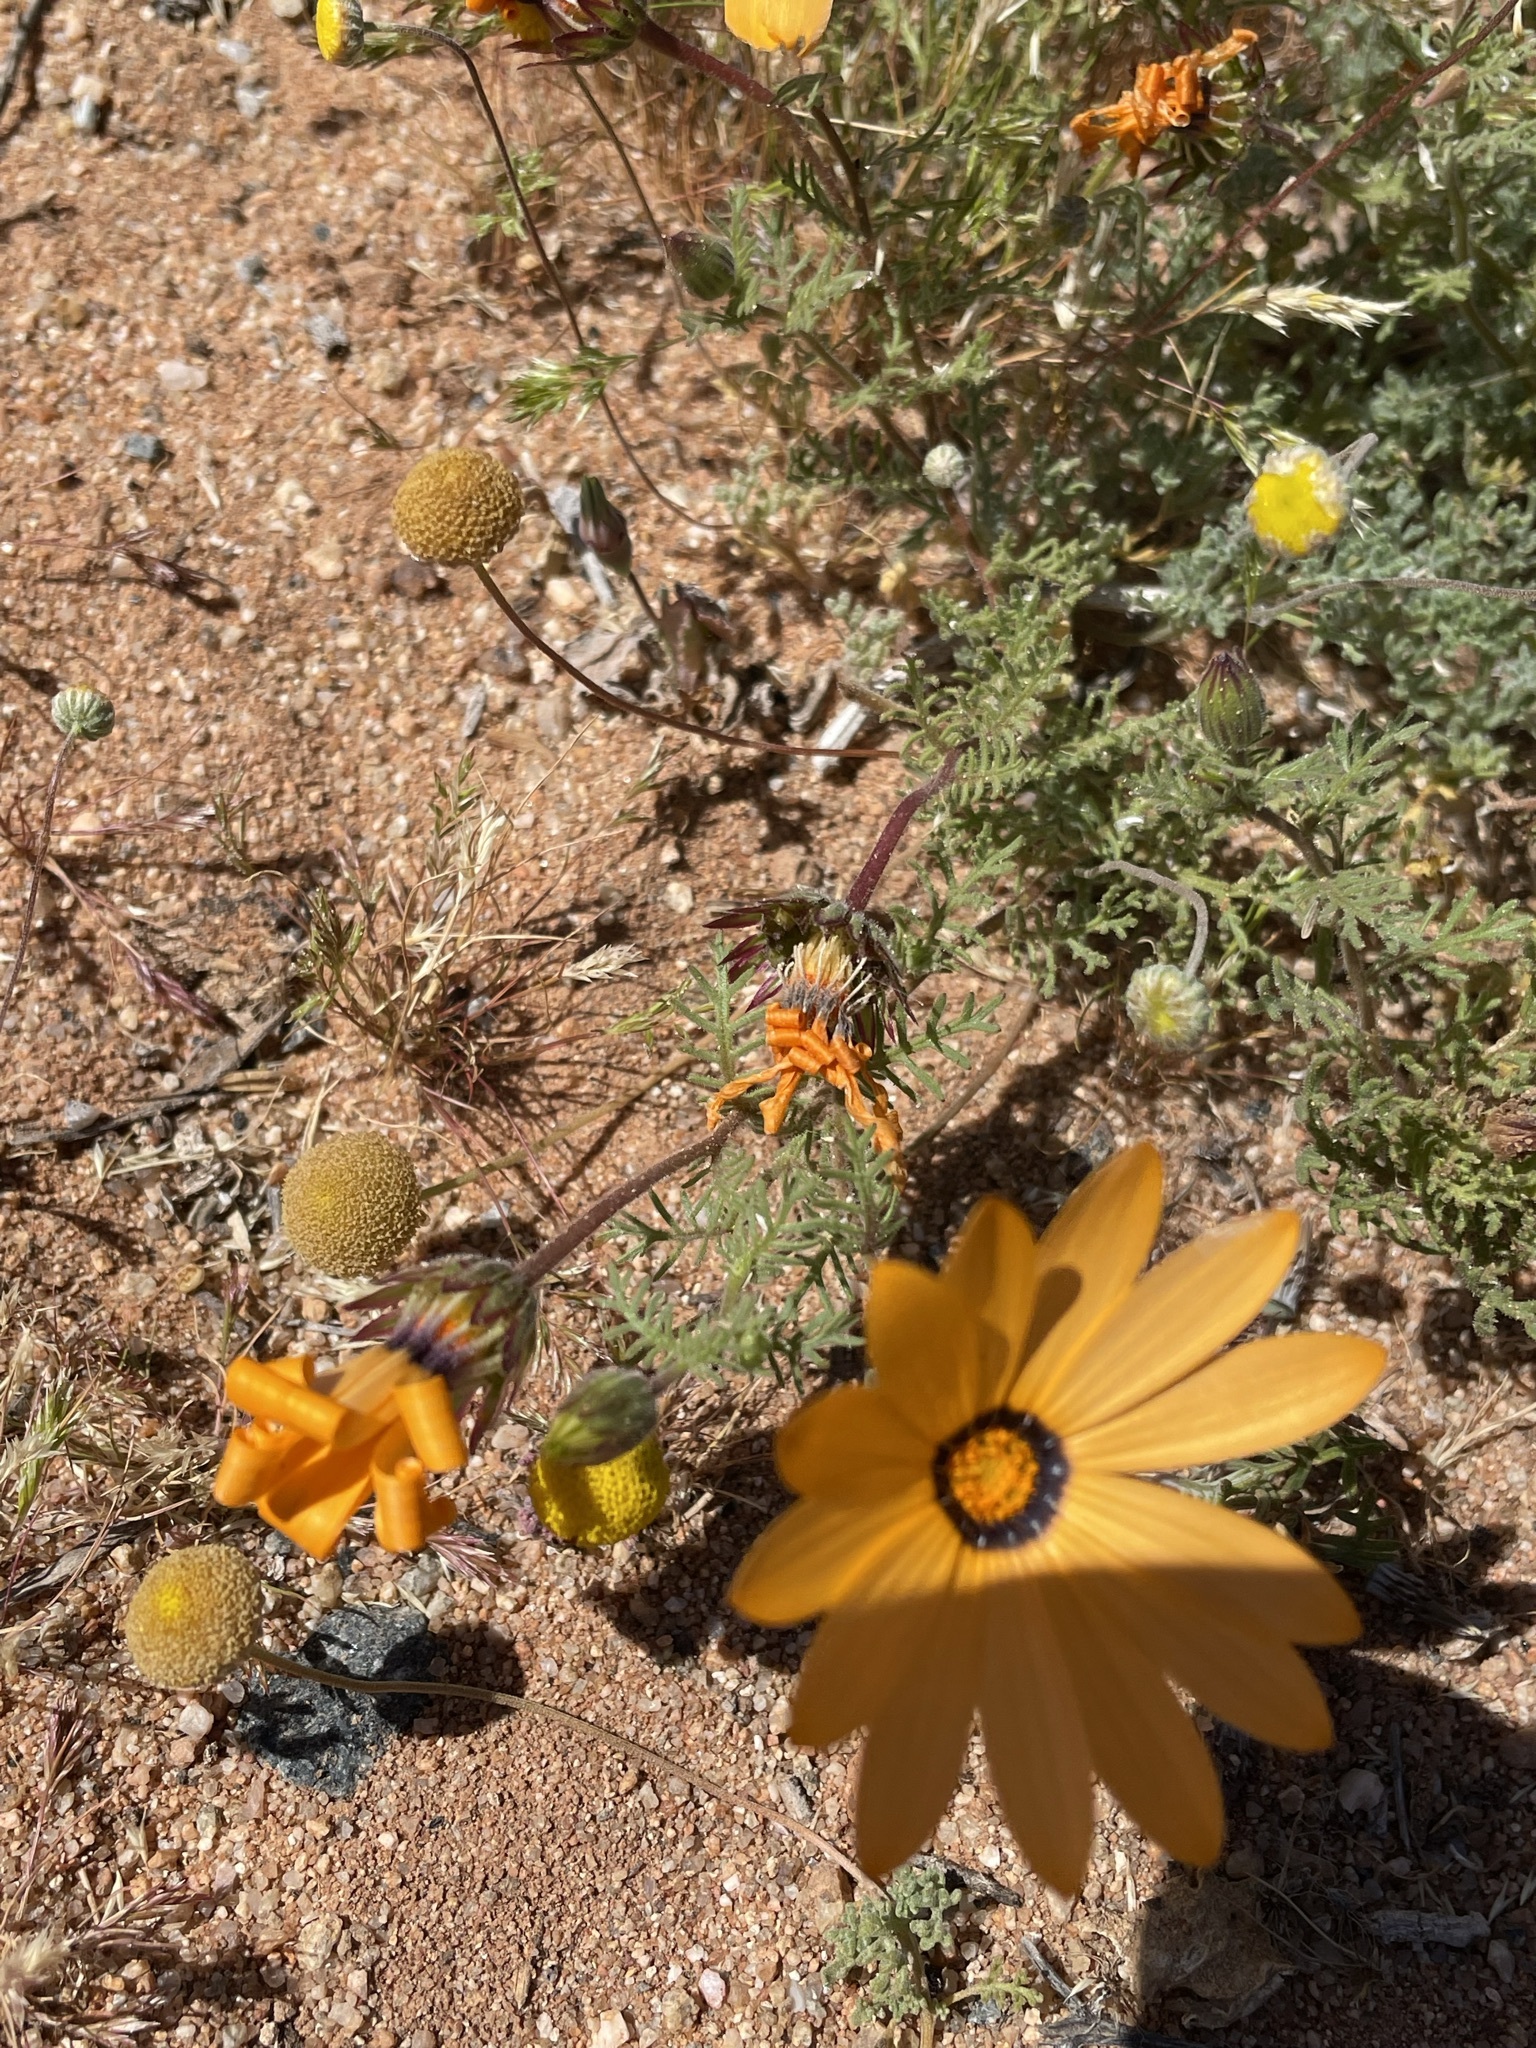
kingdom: Plantae
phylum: Tracheophyta
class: Magnoliopsida
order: Asterales
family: Asteraceae
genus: Dimorphotheca
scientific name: Dimorphotheca pinnata
